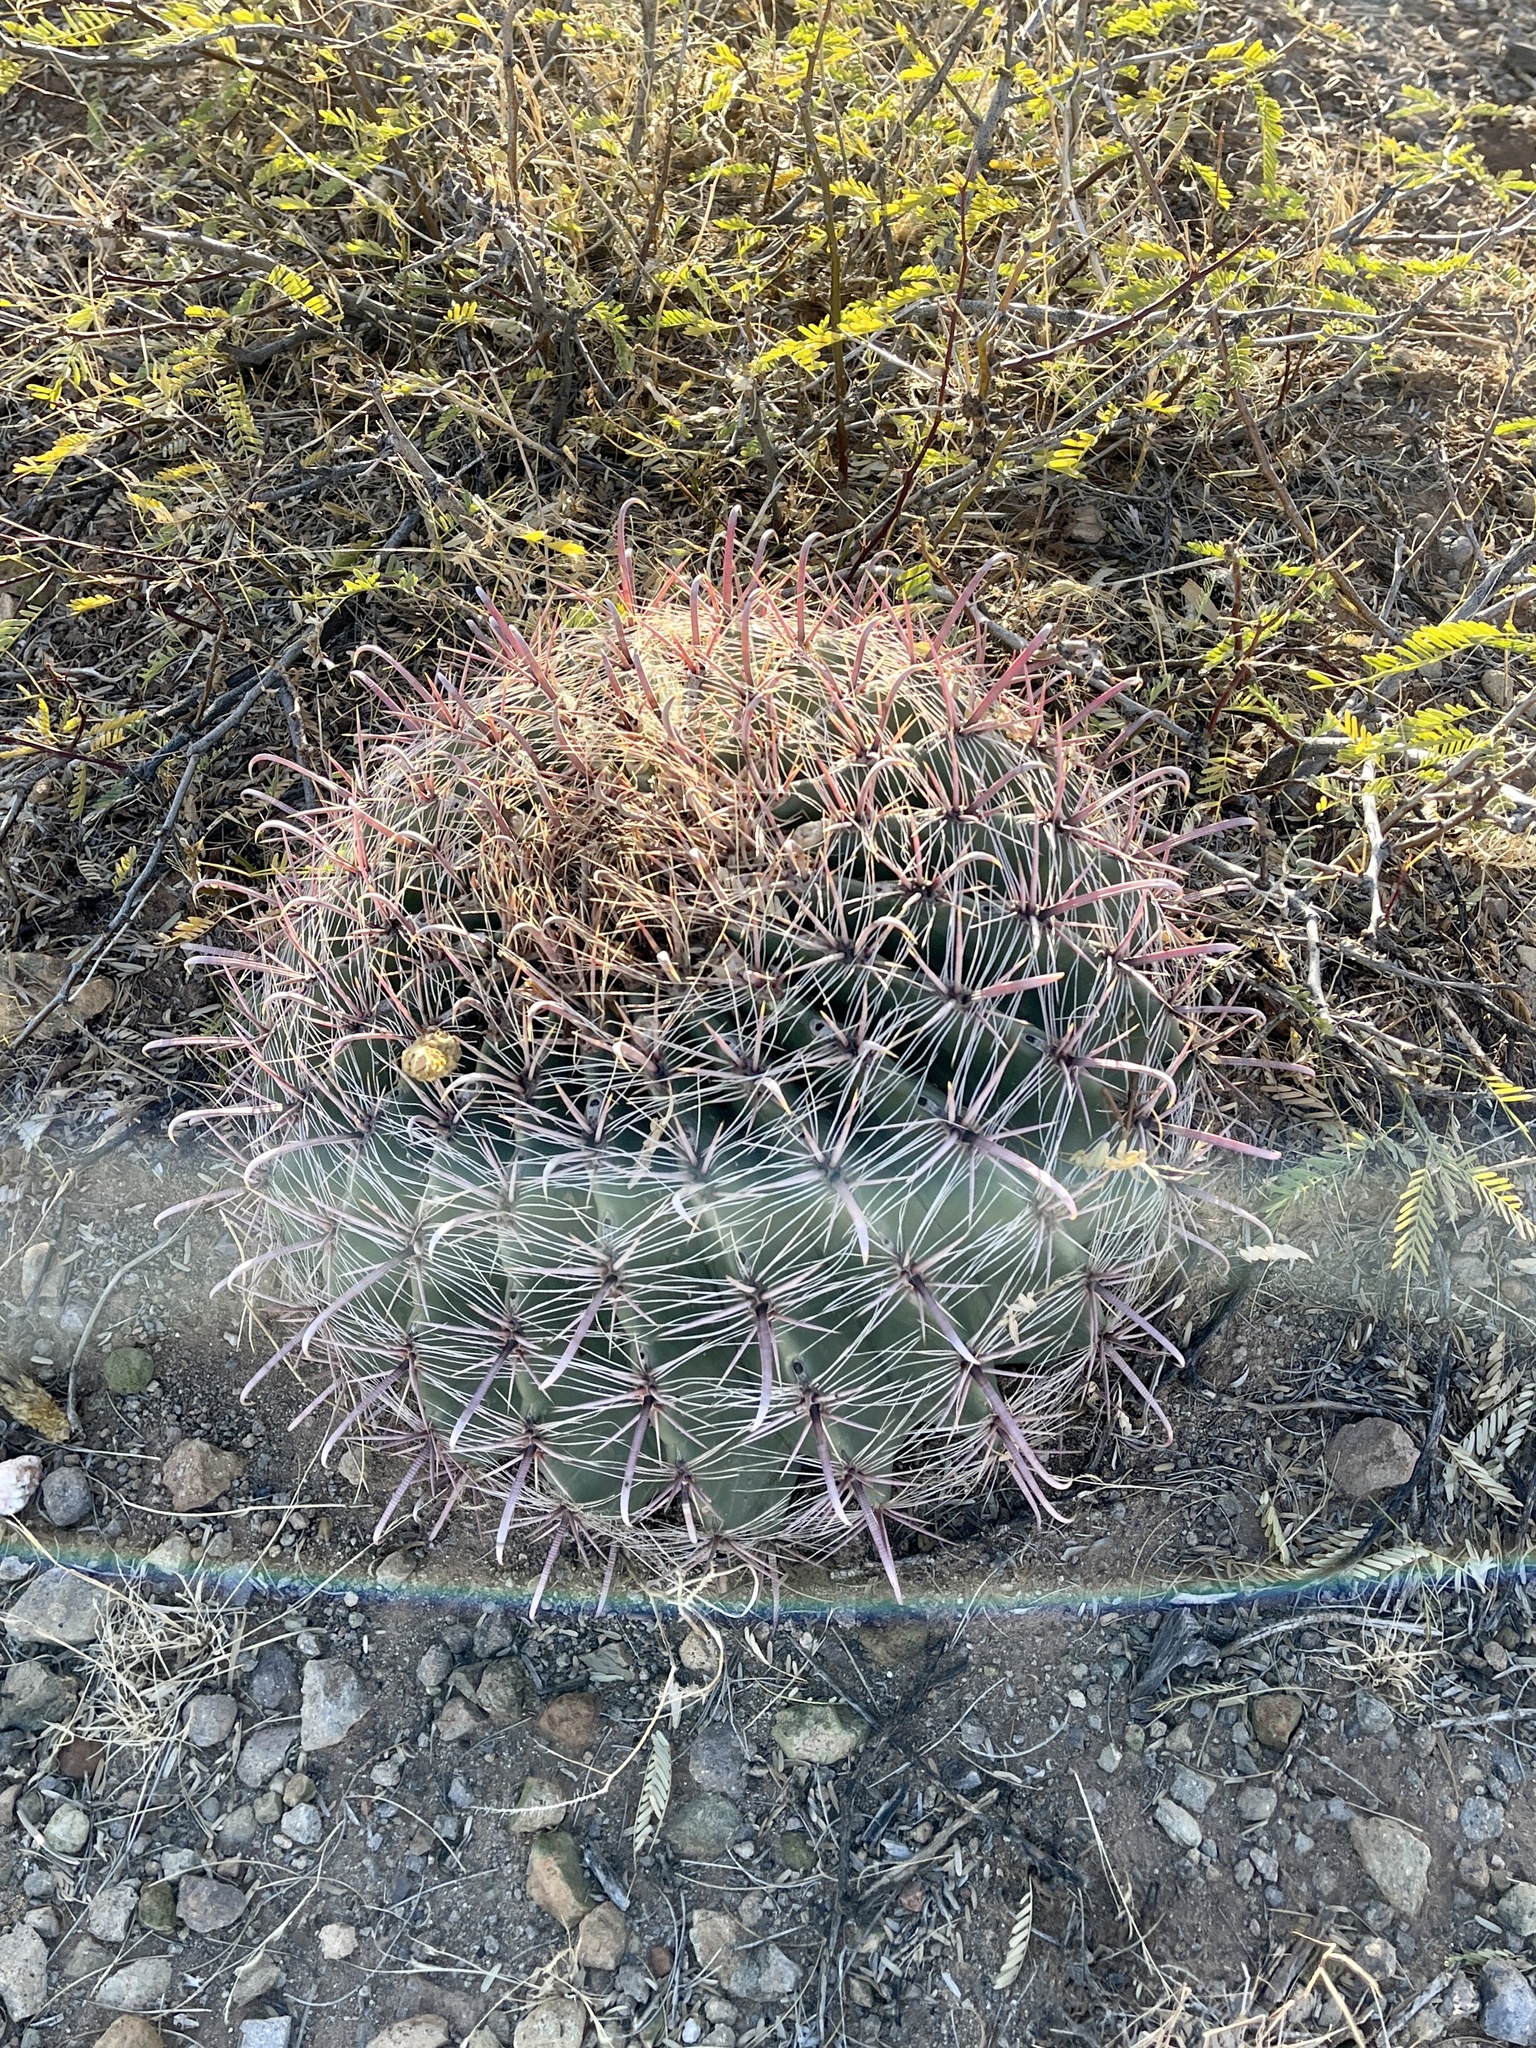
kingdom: Plantae
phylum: Tracheophyta
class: Magnoliopsida
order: Caryophyllales
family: Cactaceae
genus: Ferocactus
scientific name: Ferocactus wislizeni
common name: Candy barrel cactus
